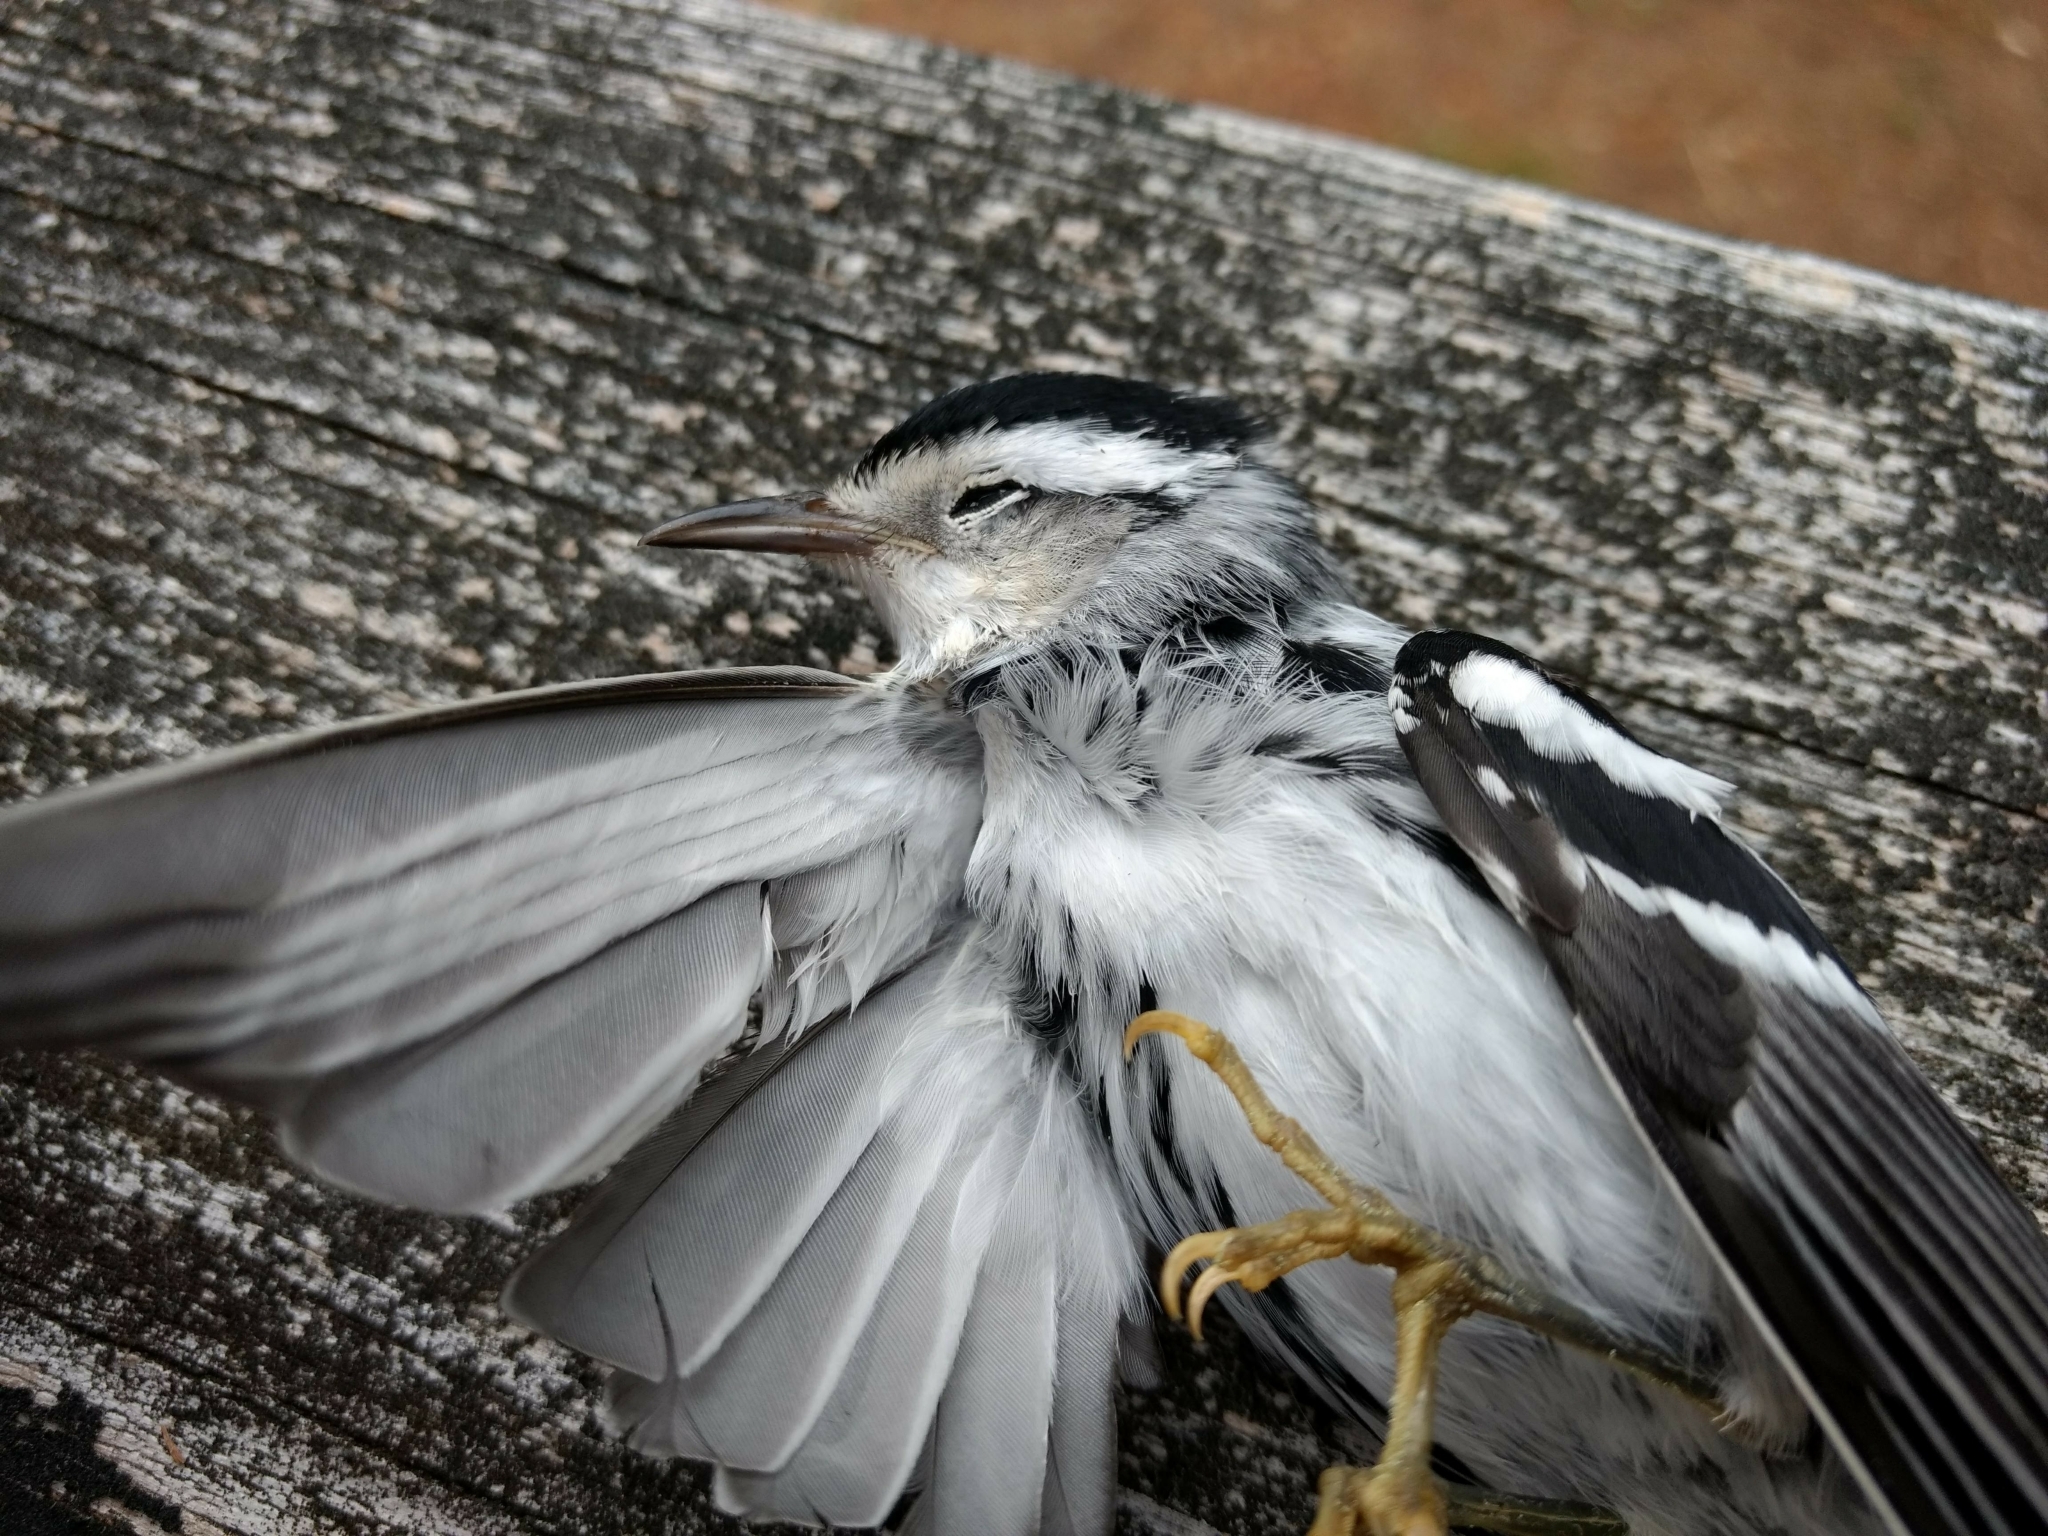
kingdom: Animalia
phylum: Chordata
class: Aves
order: Passeriformes
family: Parulidae
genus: Mniotilta
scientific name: Mniotilta varia
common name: Black-and-white warbler
